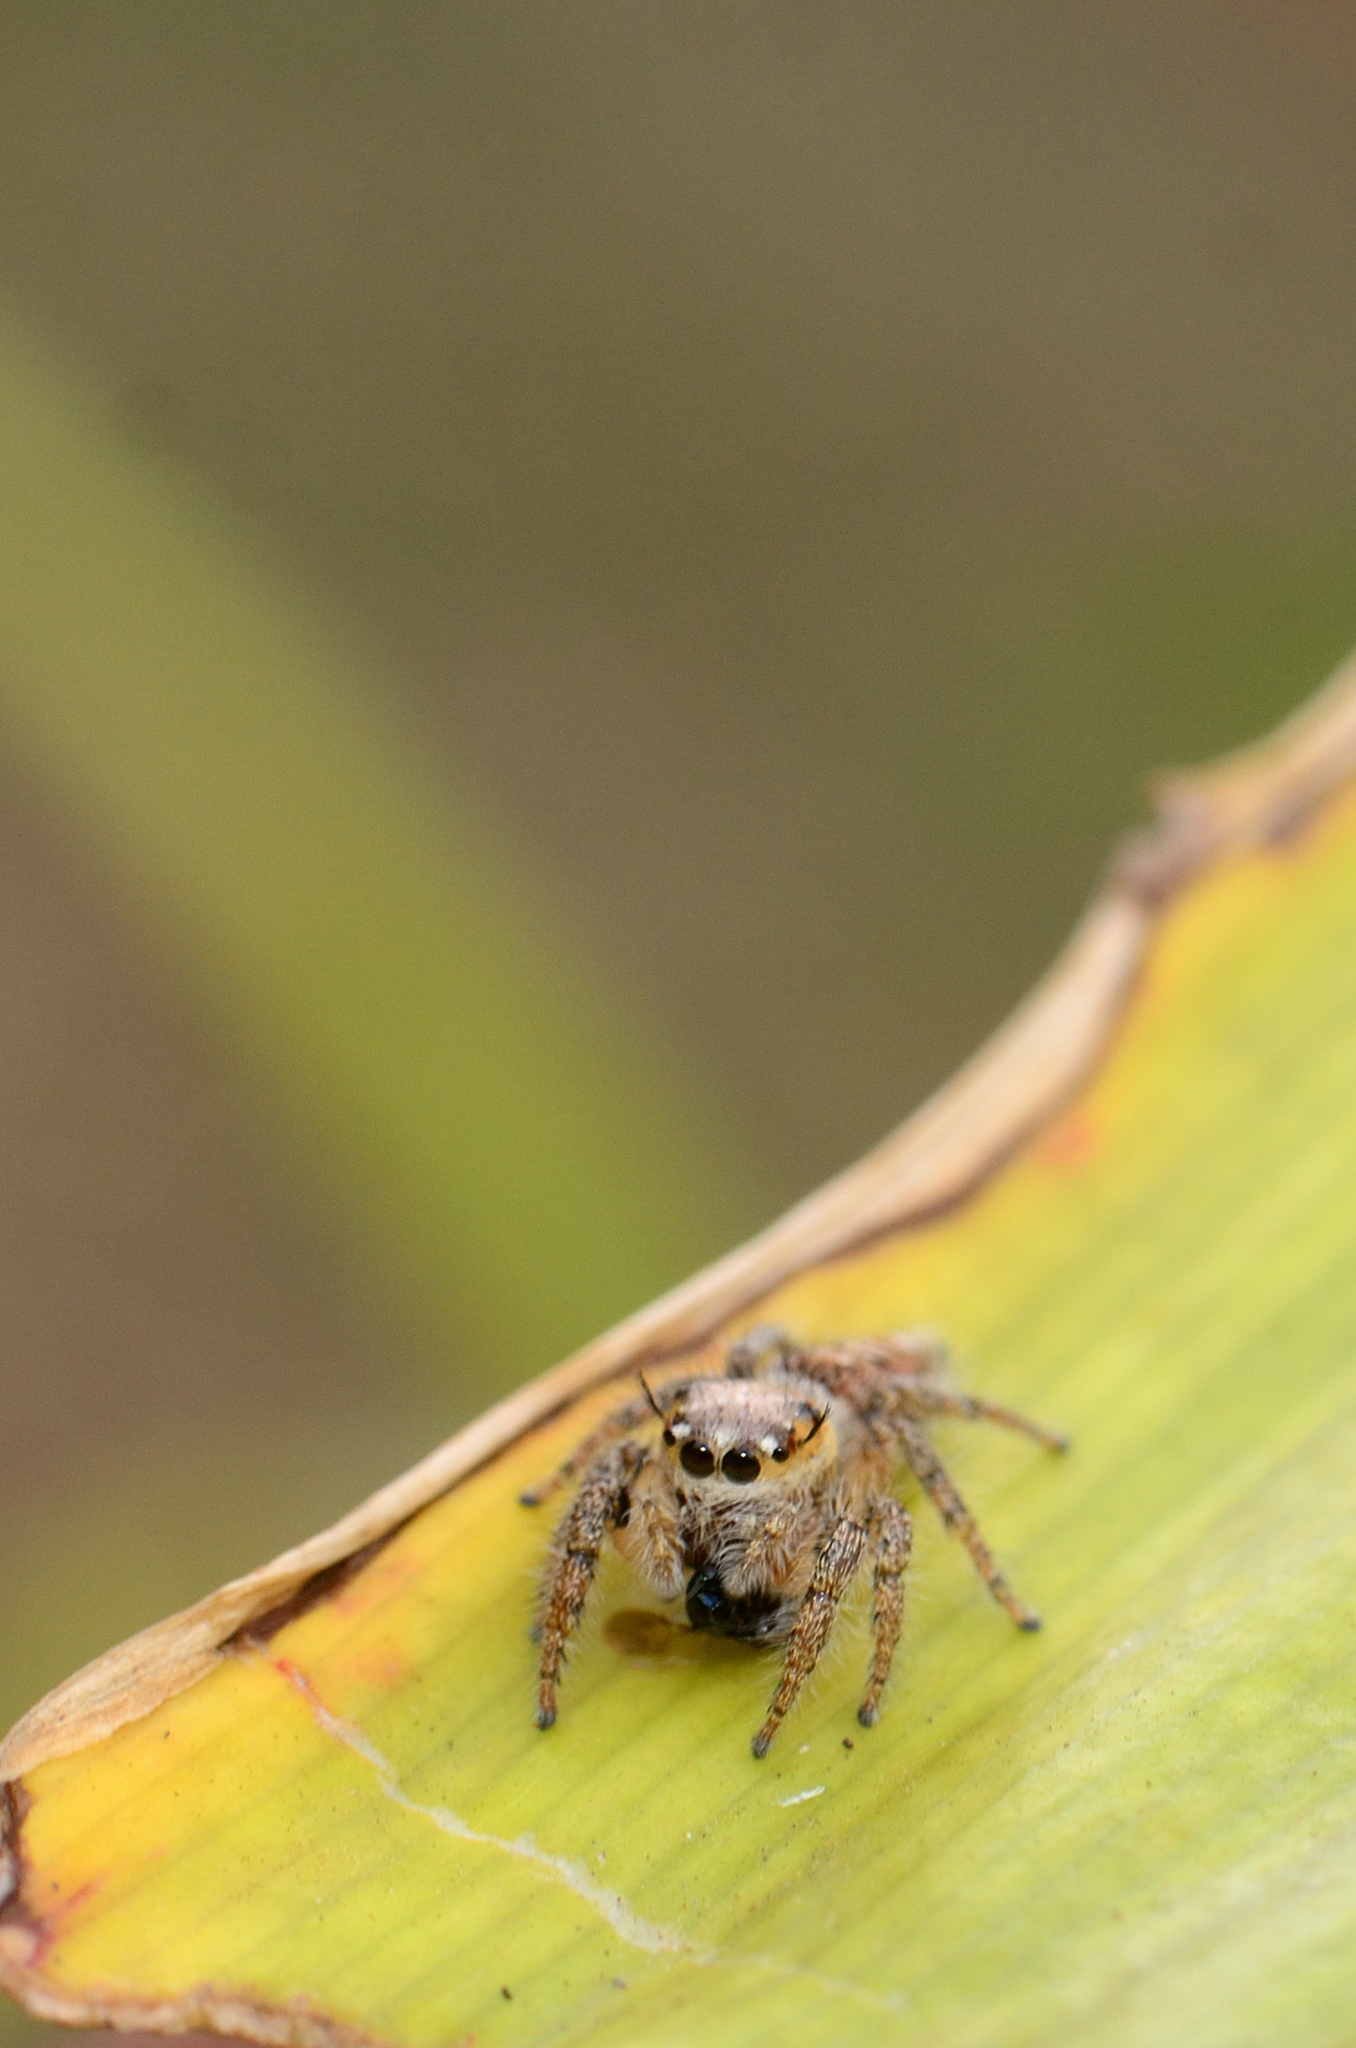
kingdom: Animalia
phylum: Arthropoda
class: Arachnida
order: Araneae
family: Salticidae
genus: Hyllus
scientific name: Hyllus semicupreus
